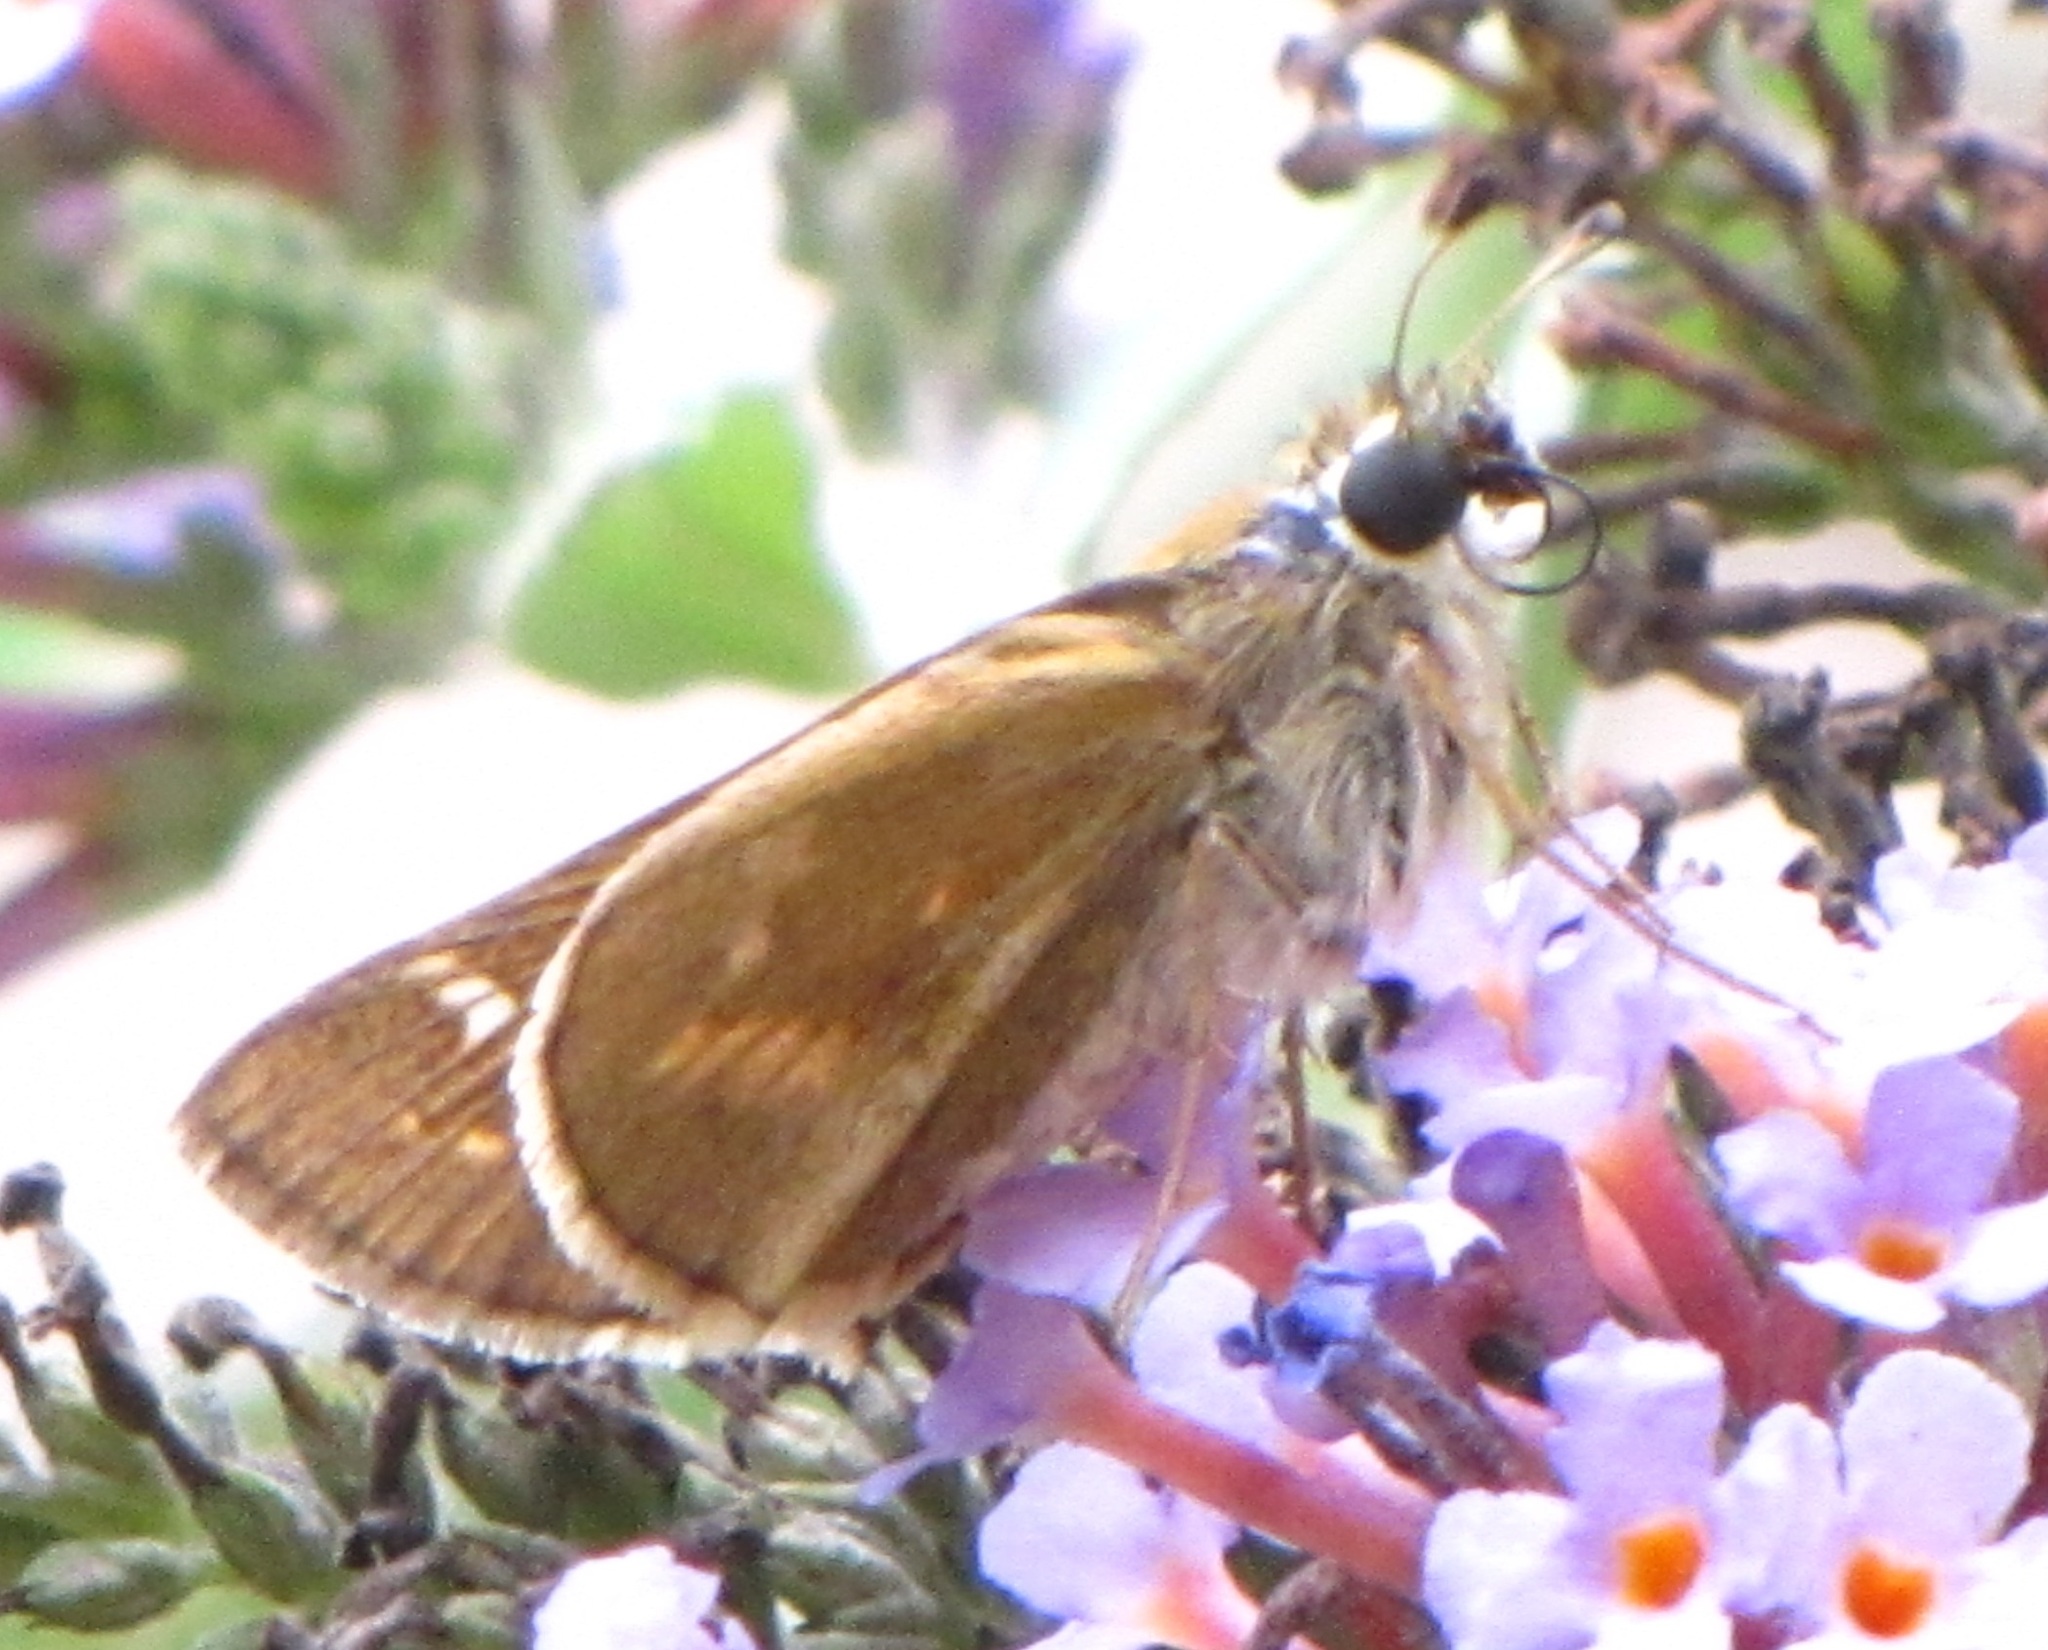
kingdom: Animalia
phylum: Arthropoda
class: Insecta
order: Lepidoptera
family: Hesperiidae
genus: Atalopedes
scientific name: Atalopedes
